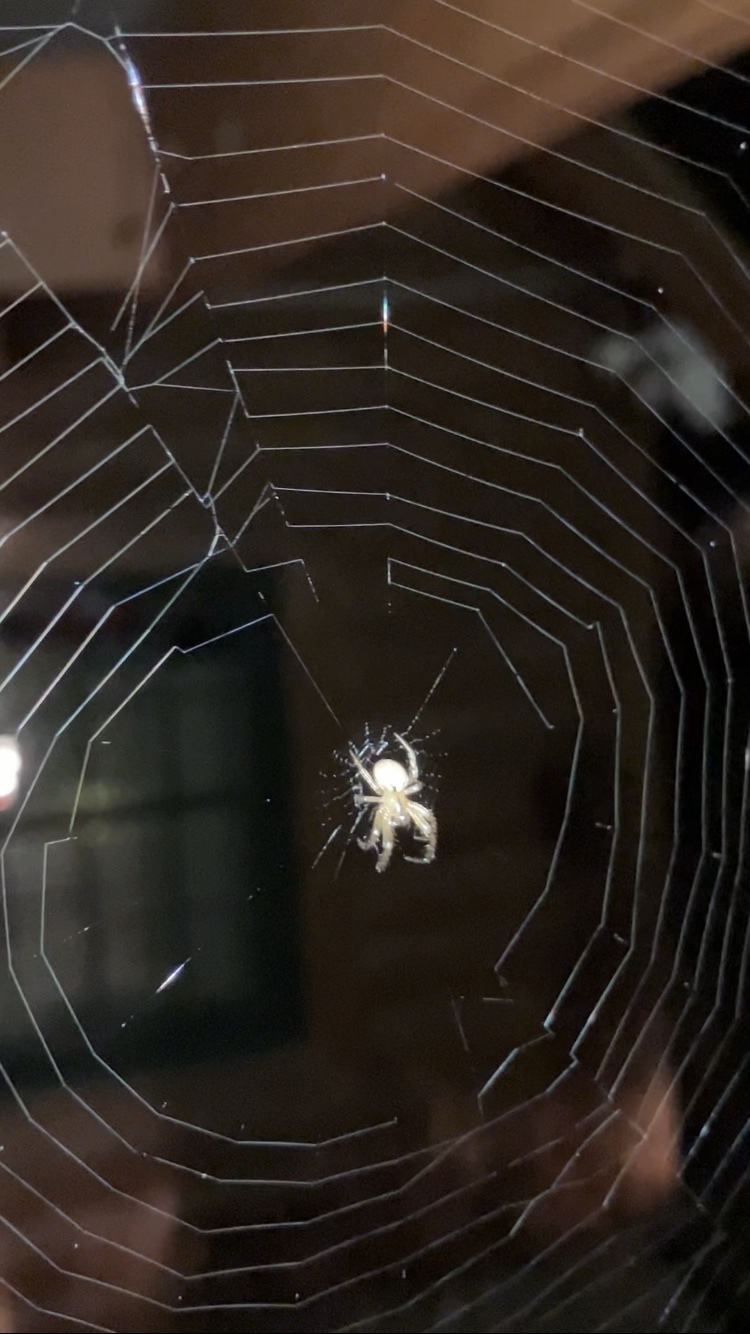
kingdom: Animalia
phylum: Arthropoda
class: Arachnida
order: Araneae
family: Araneidae
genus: Metazygia
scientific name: Metazygia zilloides
